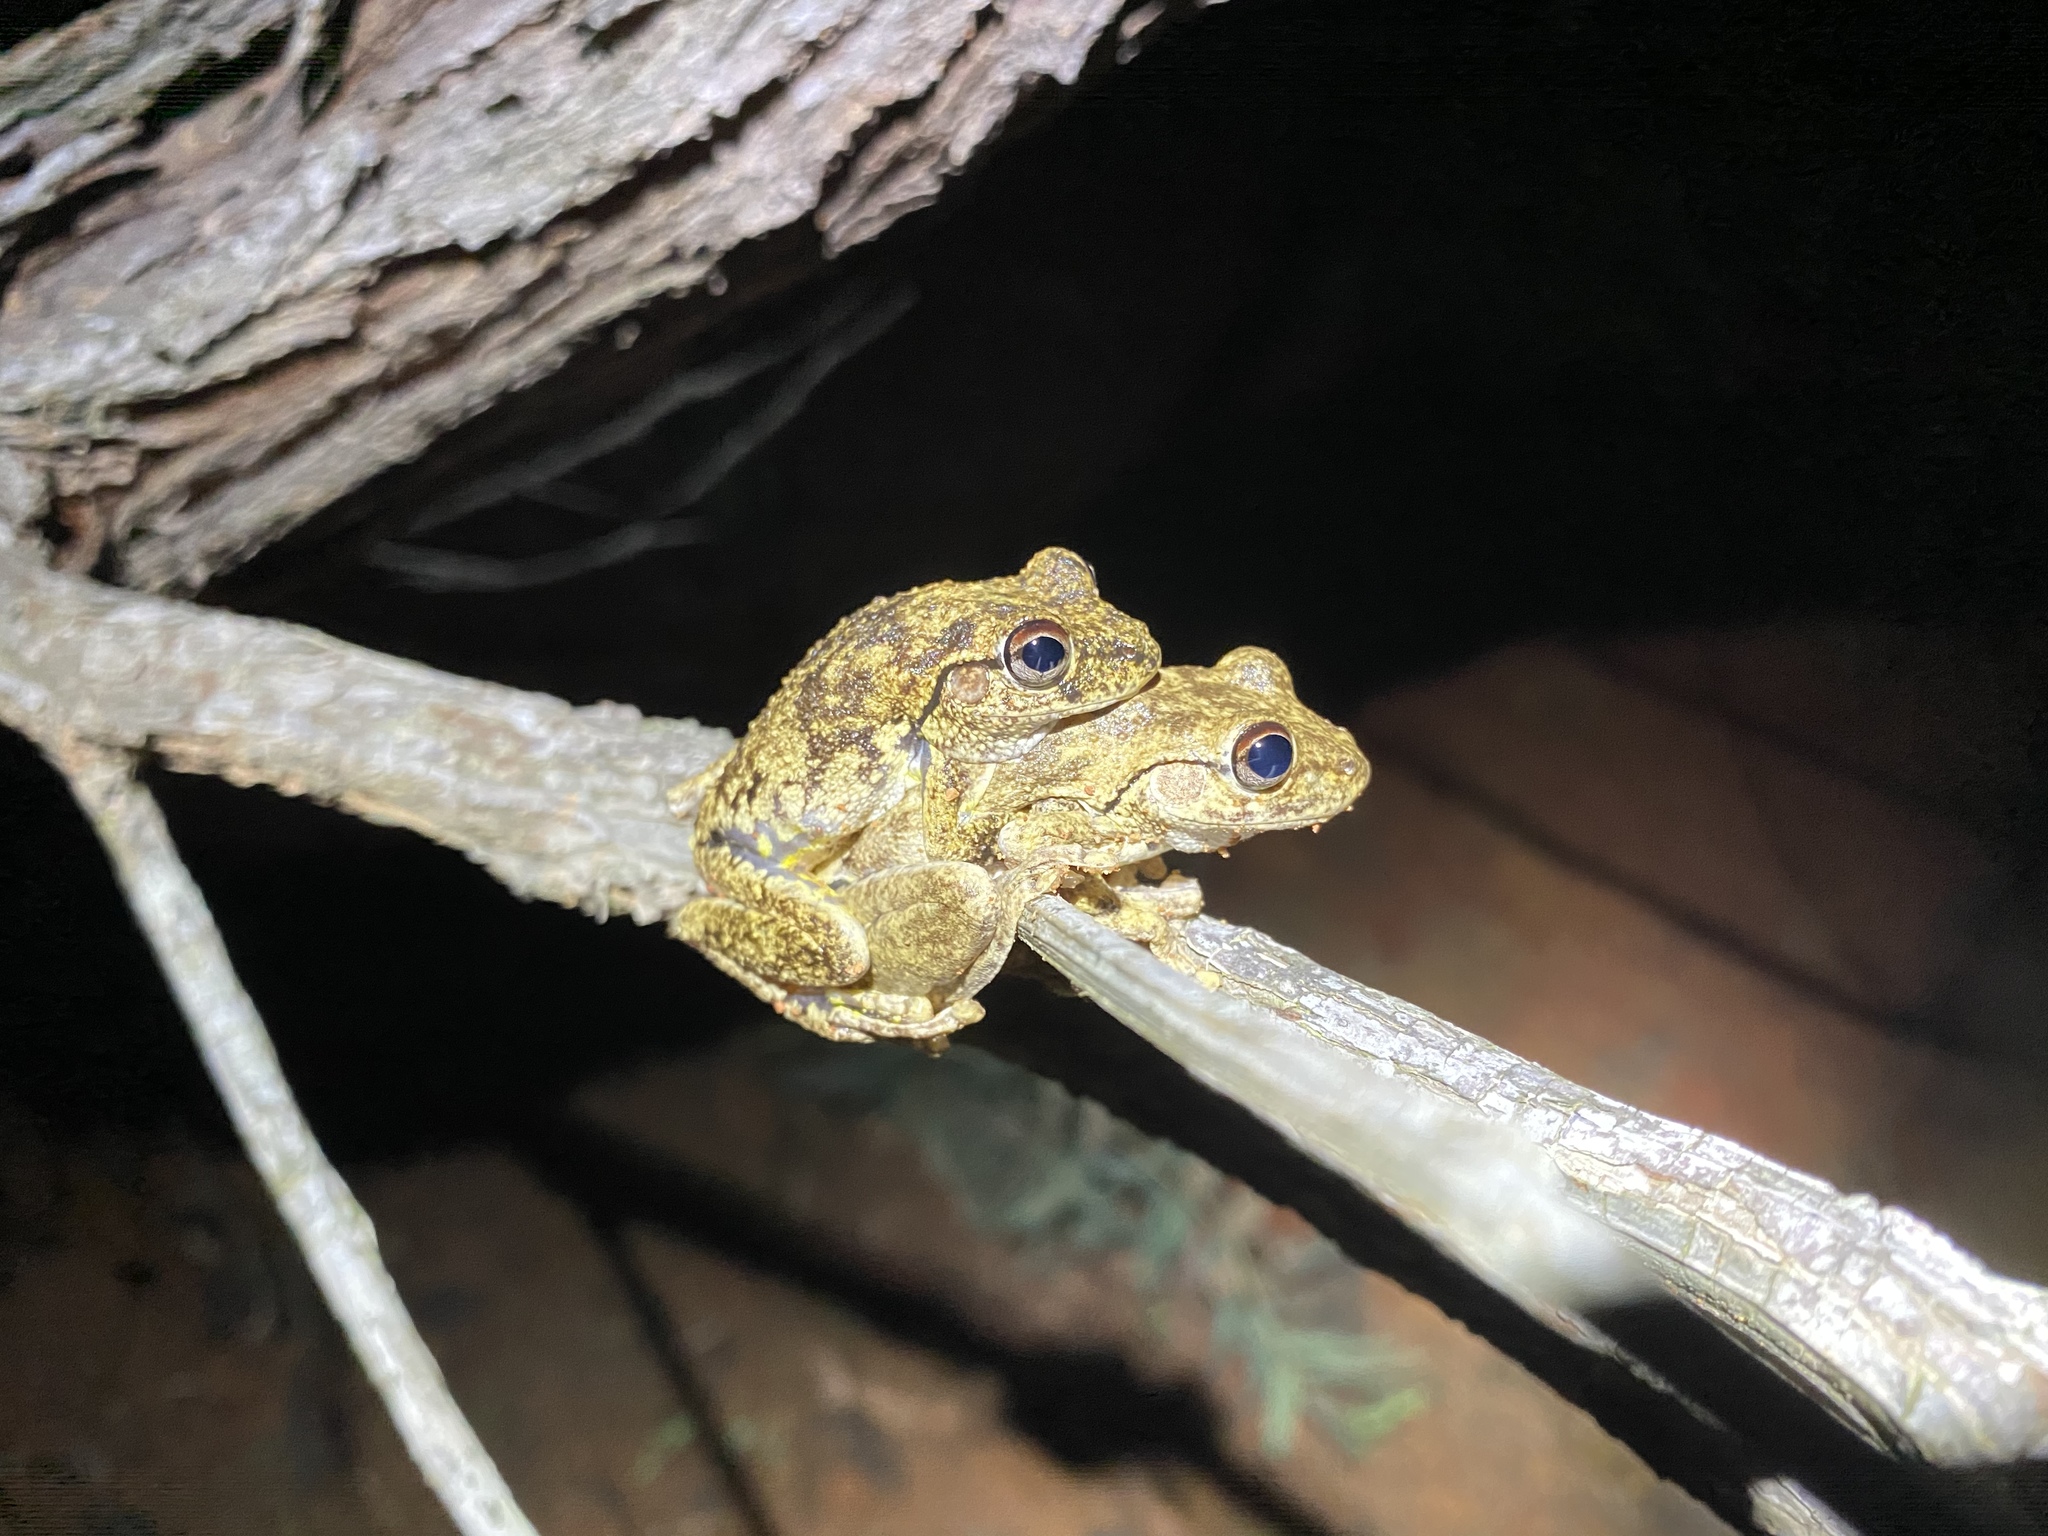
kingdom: Animalia
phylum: Chordata
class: Amphibia
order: Anura
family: Pelodryadidae
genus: Litoria
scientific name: Litoria rothii
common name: Roth’s tree frog
